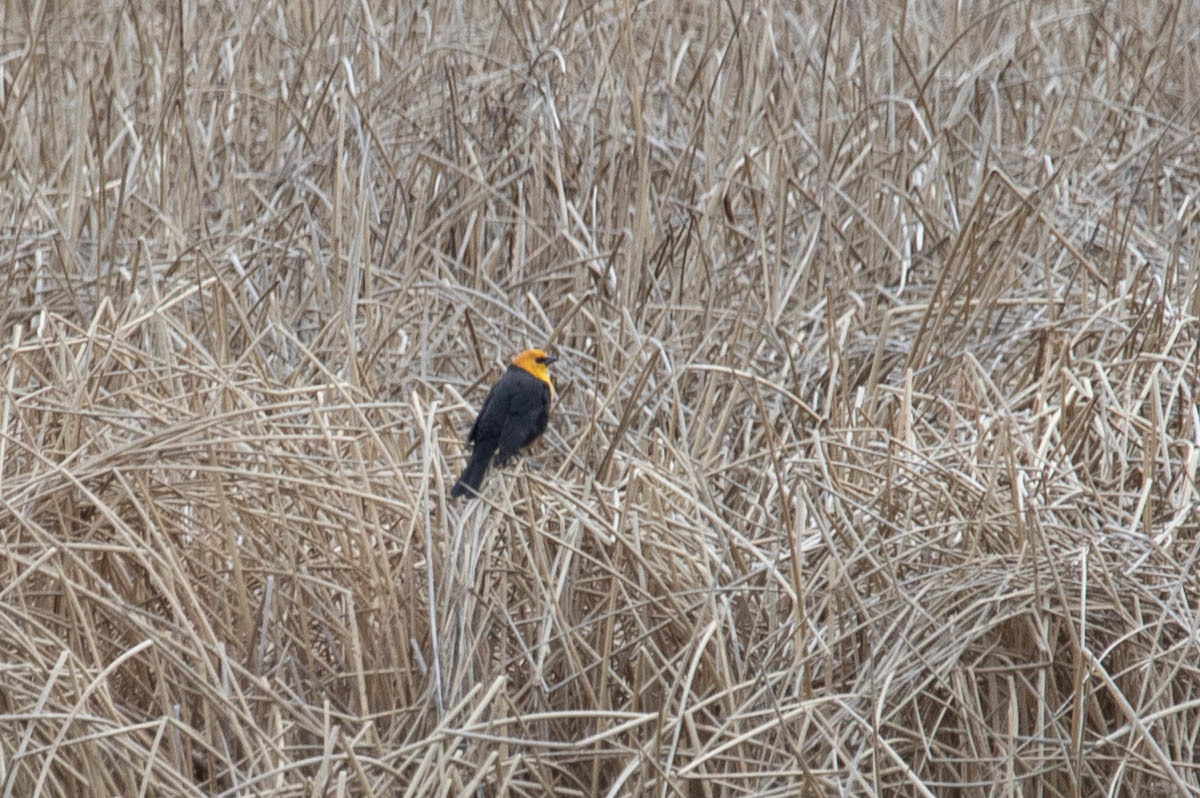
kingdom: Animalia
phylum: Chordata
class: Aves
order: Passeriformes
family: Icteridae
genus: Xanthocephalus
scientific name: Xanthocephalus xanthocephalus
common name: Yellow-headed blackbird
